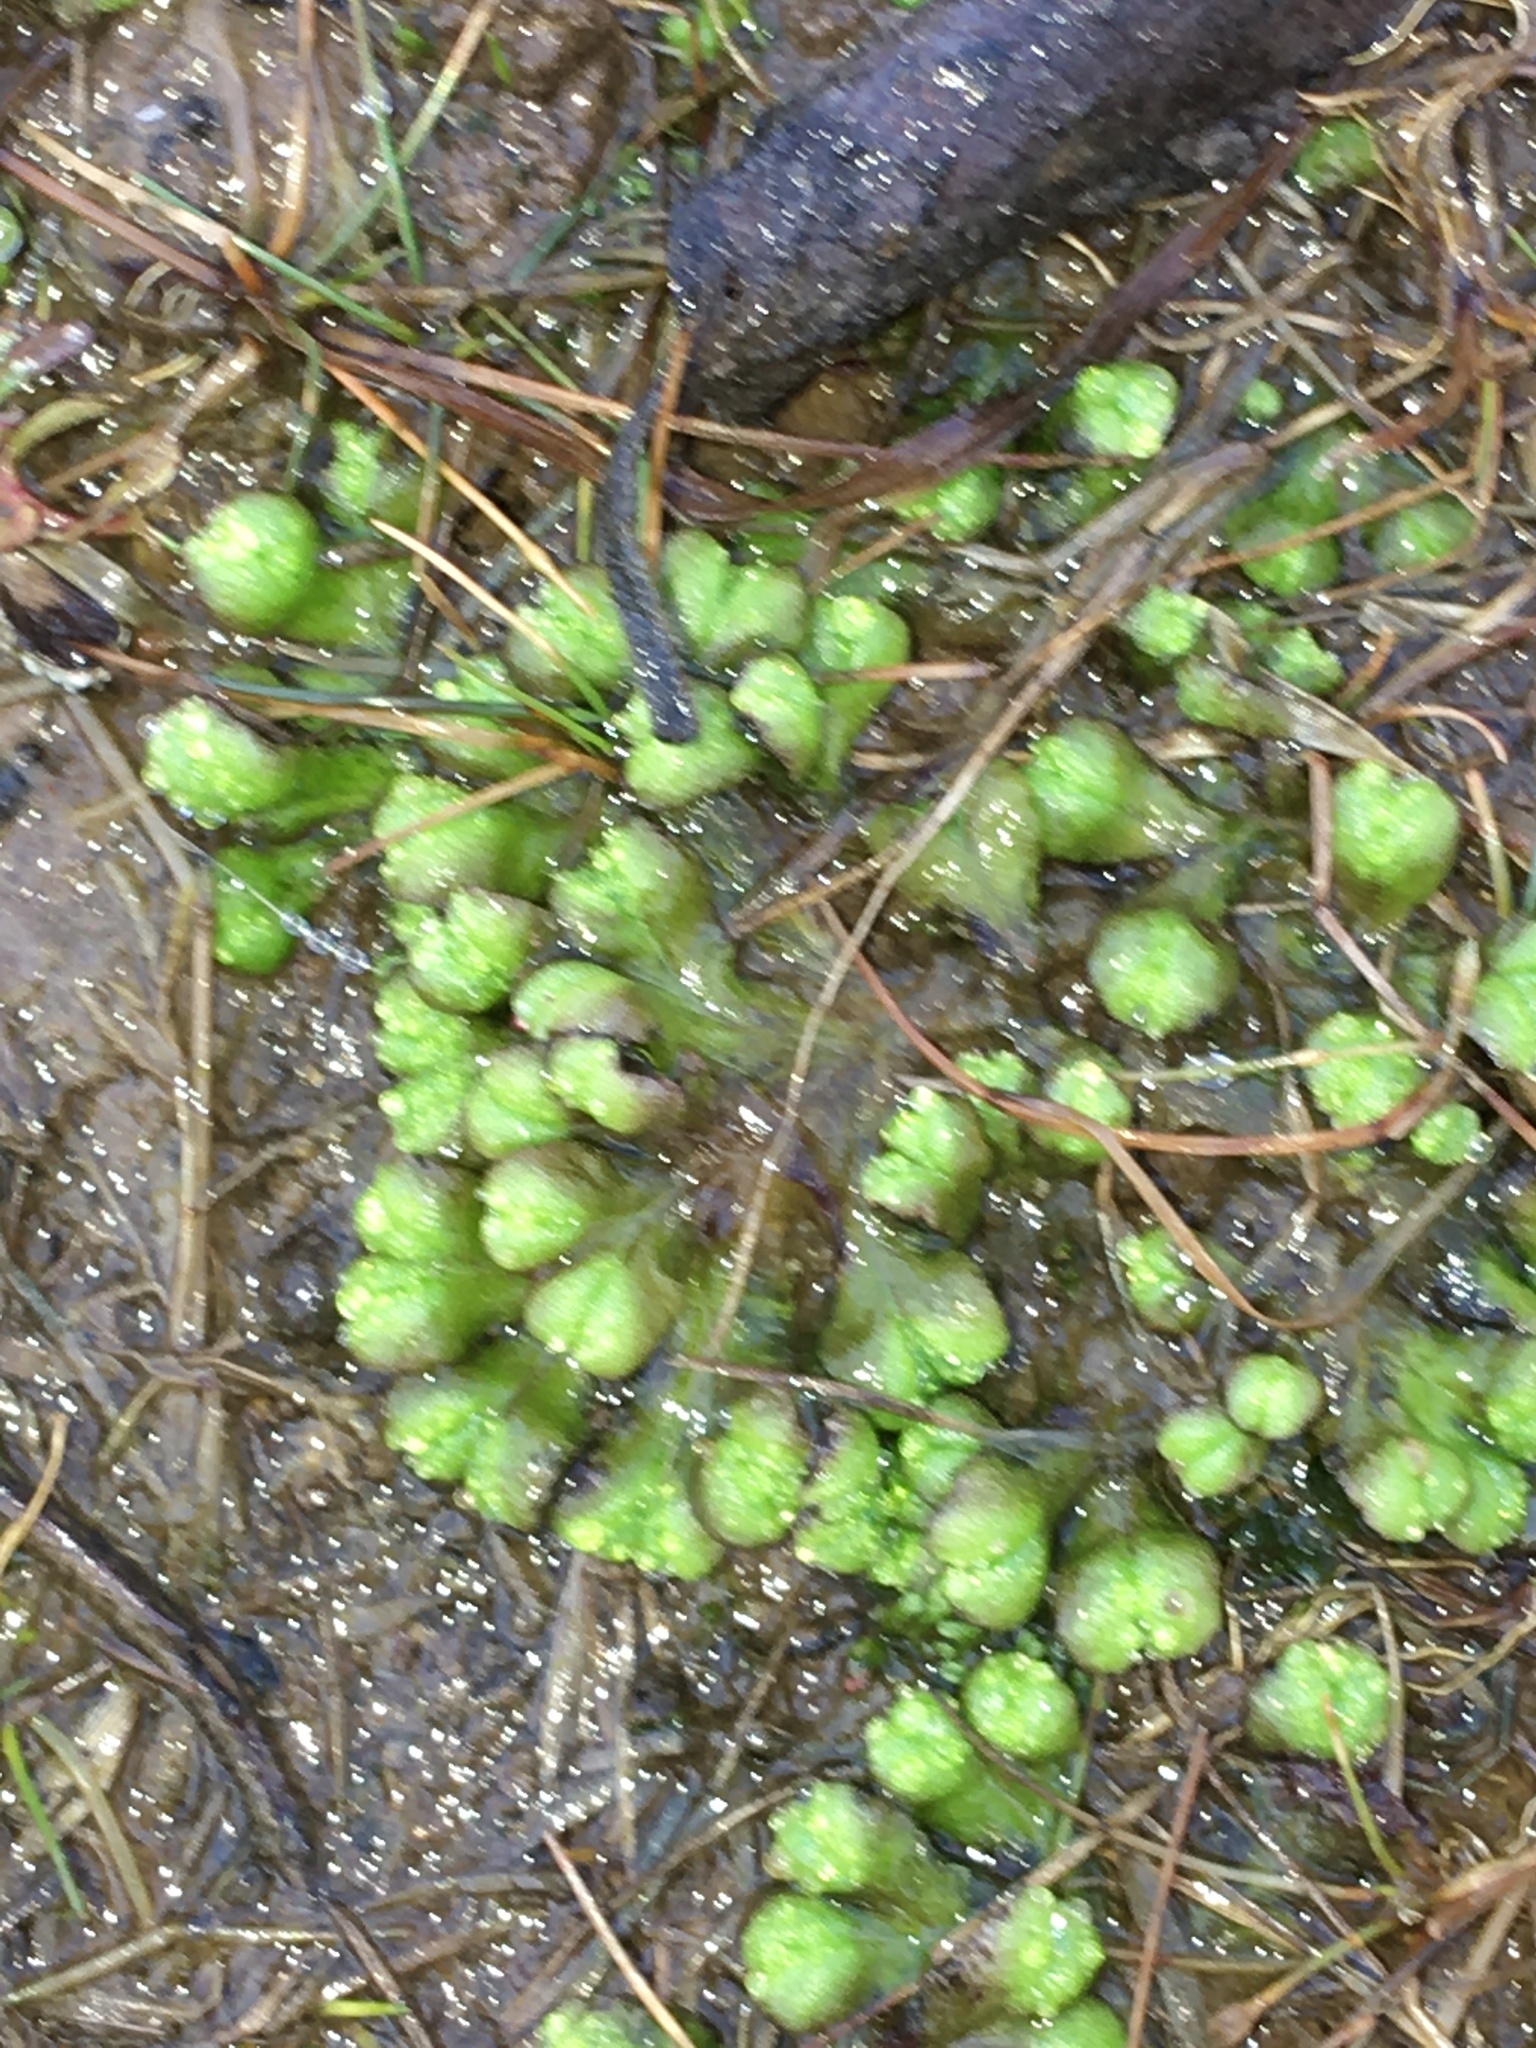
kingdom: Plantae
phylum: Marchantiophyta
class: Marchantiopsida
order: Marchantiales
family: Ricciaceae
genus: Ricciocarpos
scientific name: Ricciocarpos natans
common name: Purple-fringed liverwort
